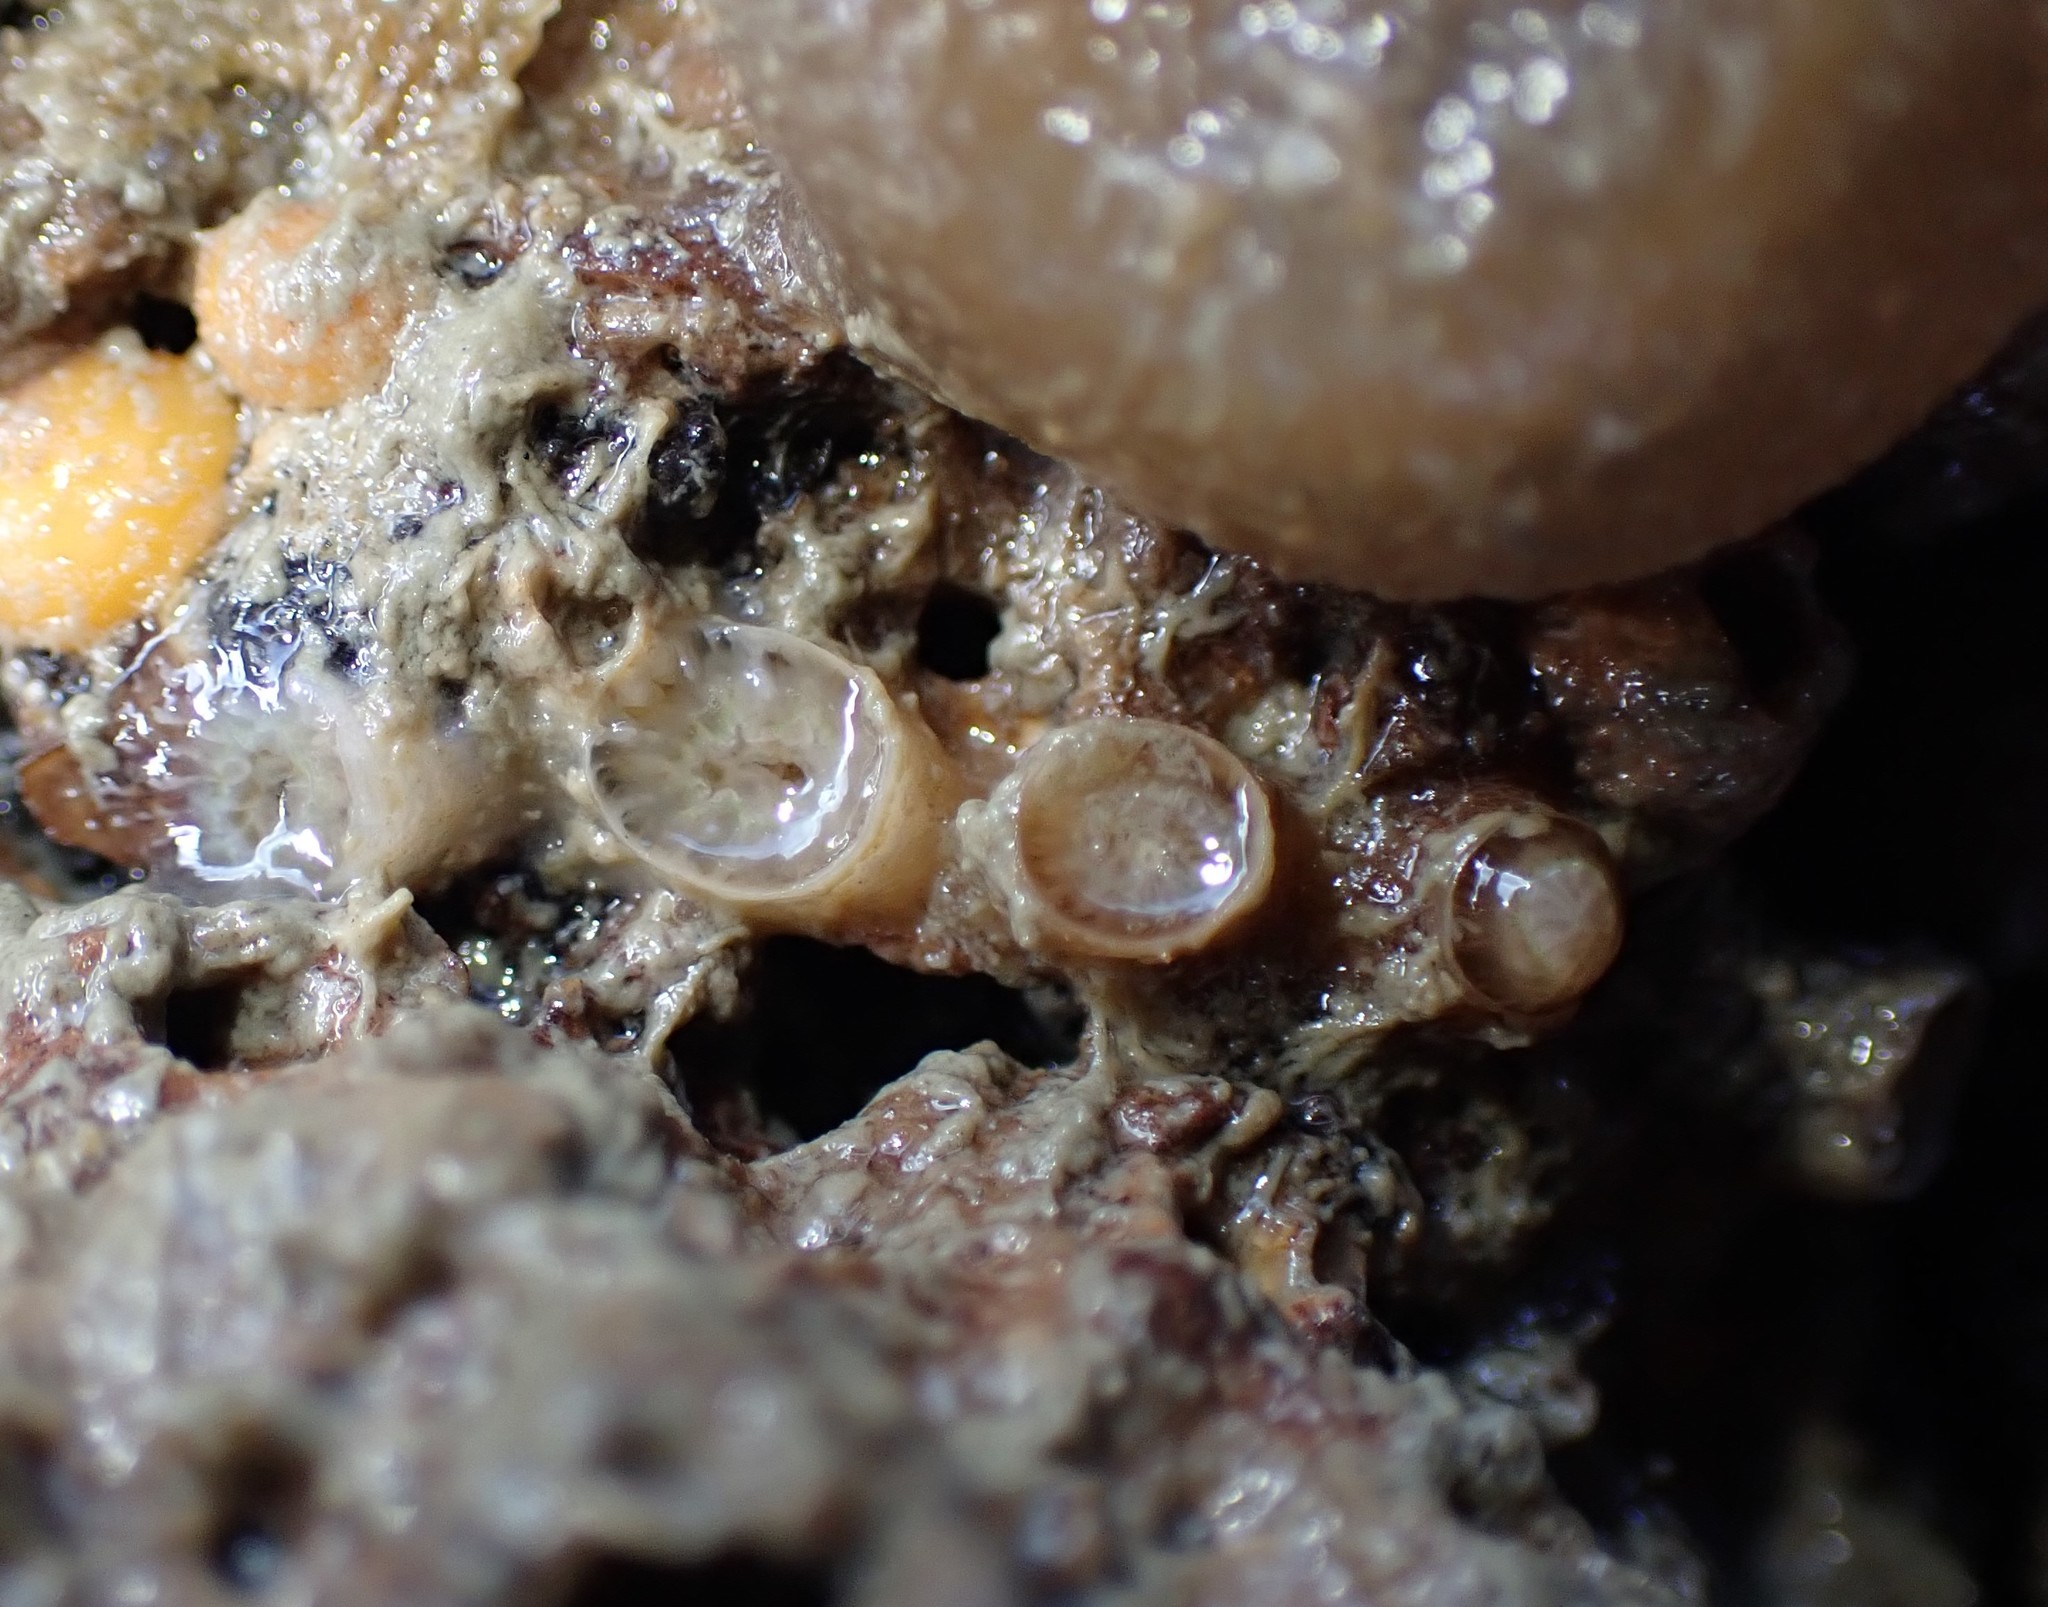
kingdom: Animalia
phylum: Cnidaria
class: Anthozoa
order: Scleractinia
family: Rhizangiidae
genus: Culicia
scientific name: Culicia rubeola
